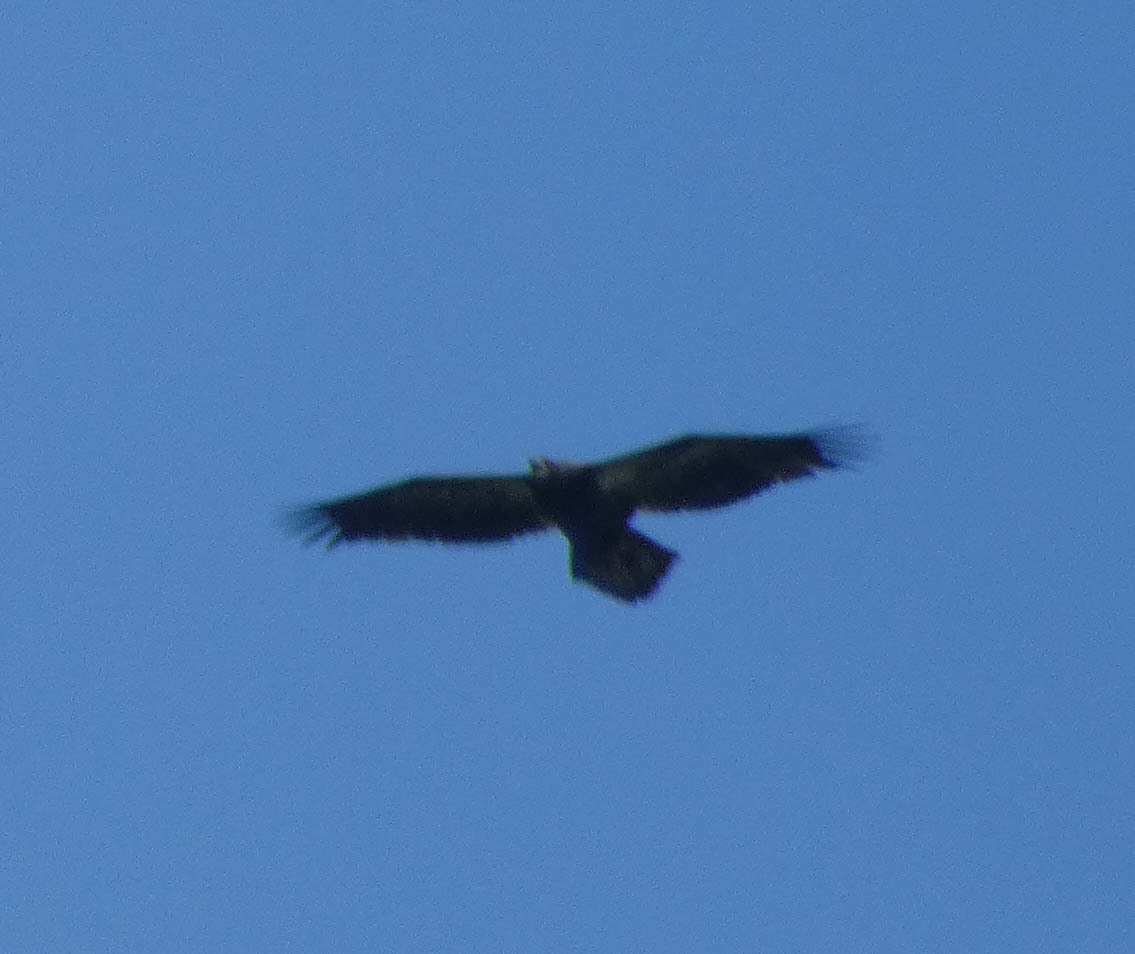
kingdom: Animalia
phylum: Chordata
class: Aves
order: Accipitriformes
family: Accipitridae
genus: Haliaeetus
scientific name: Haliaeetus leucocephalus
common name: Bald eagle
